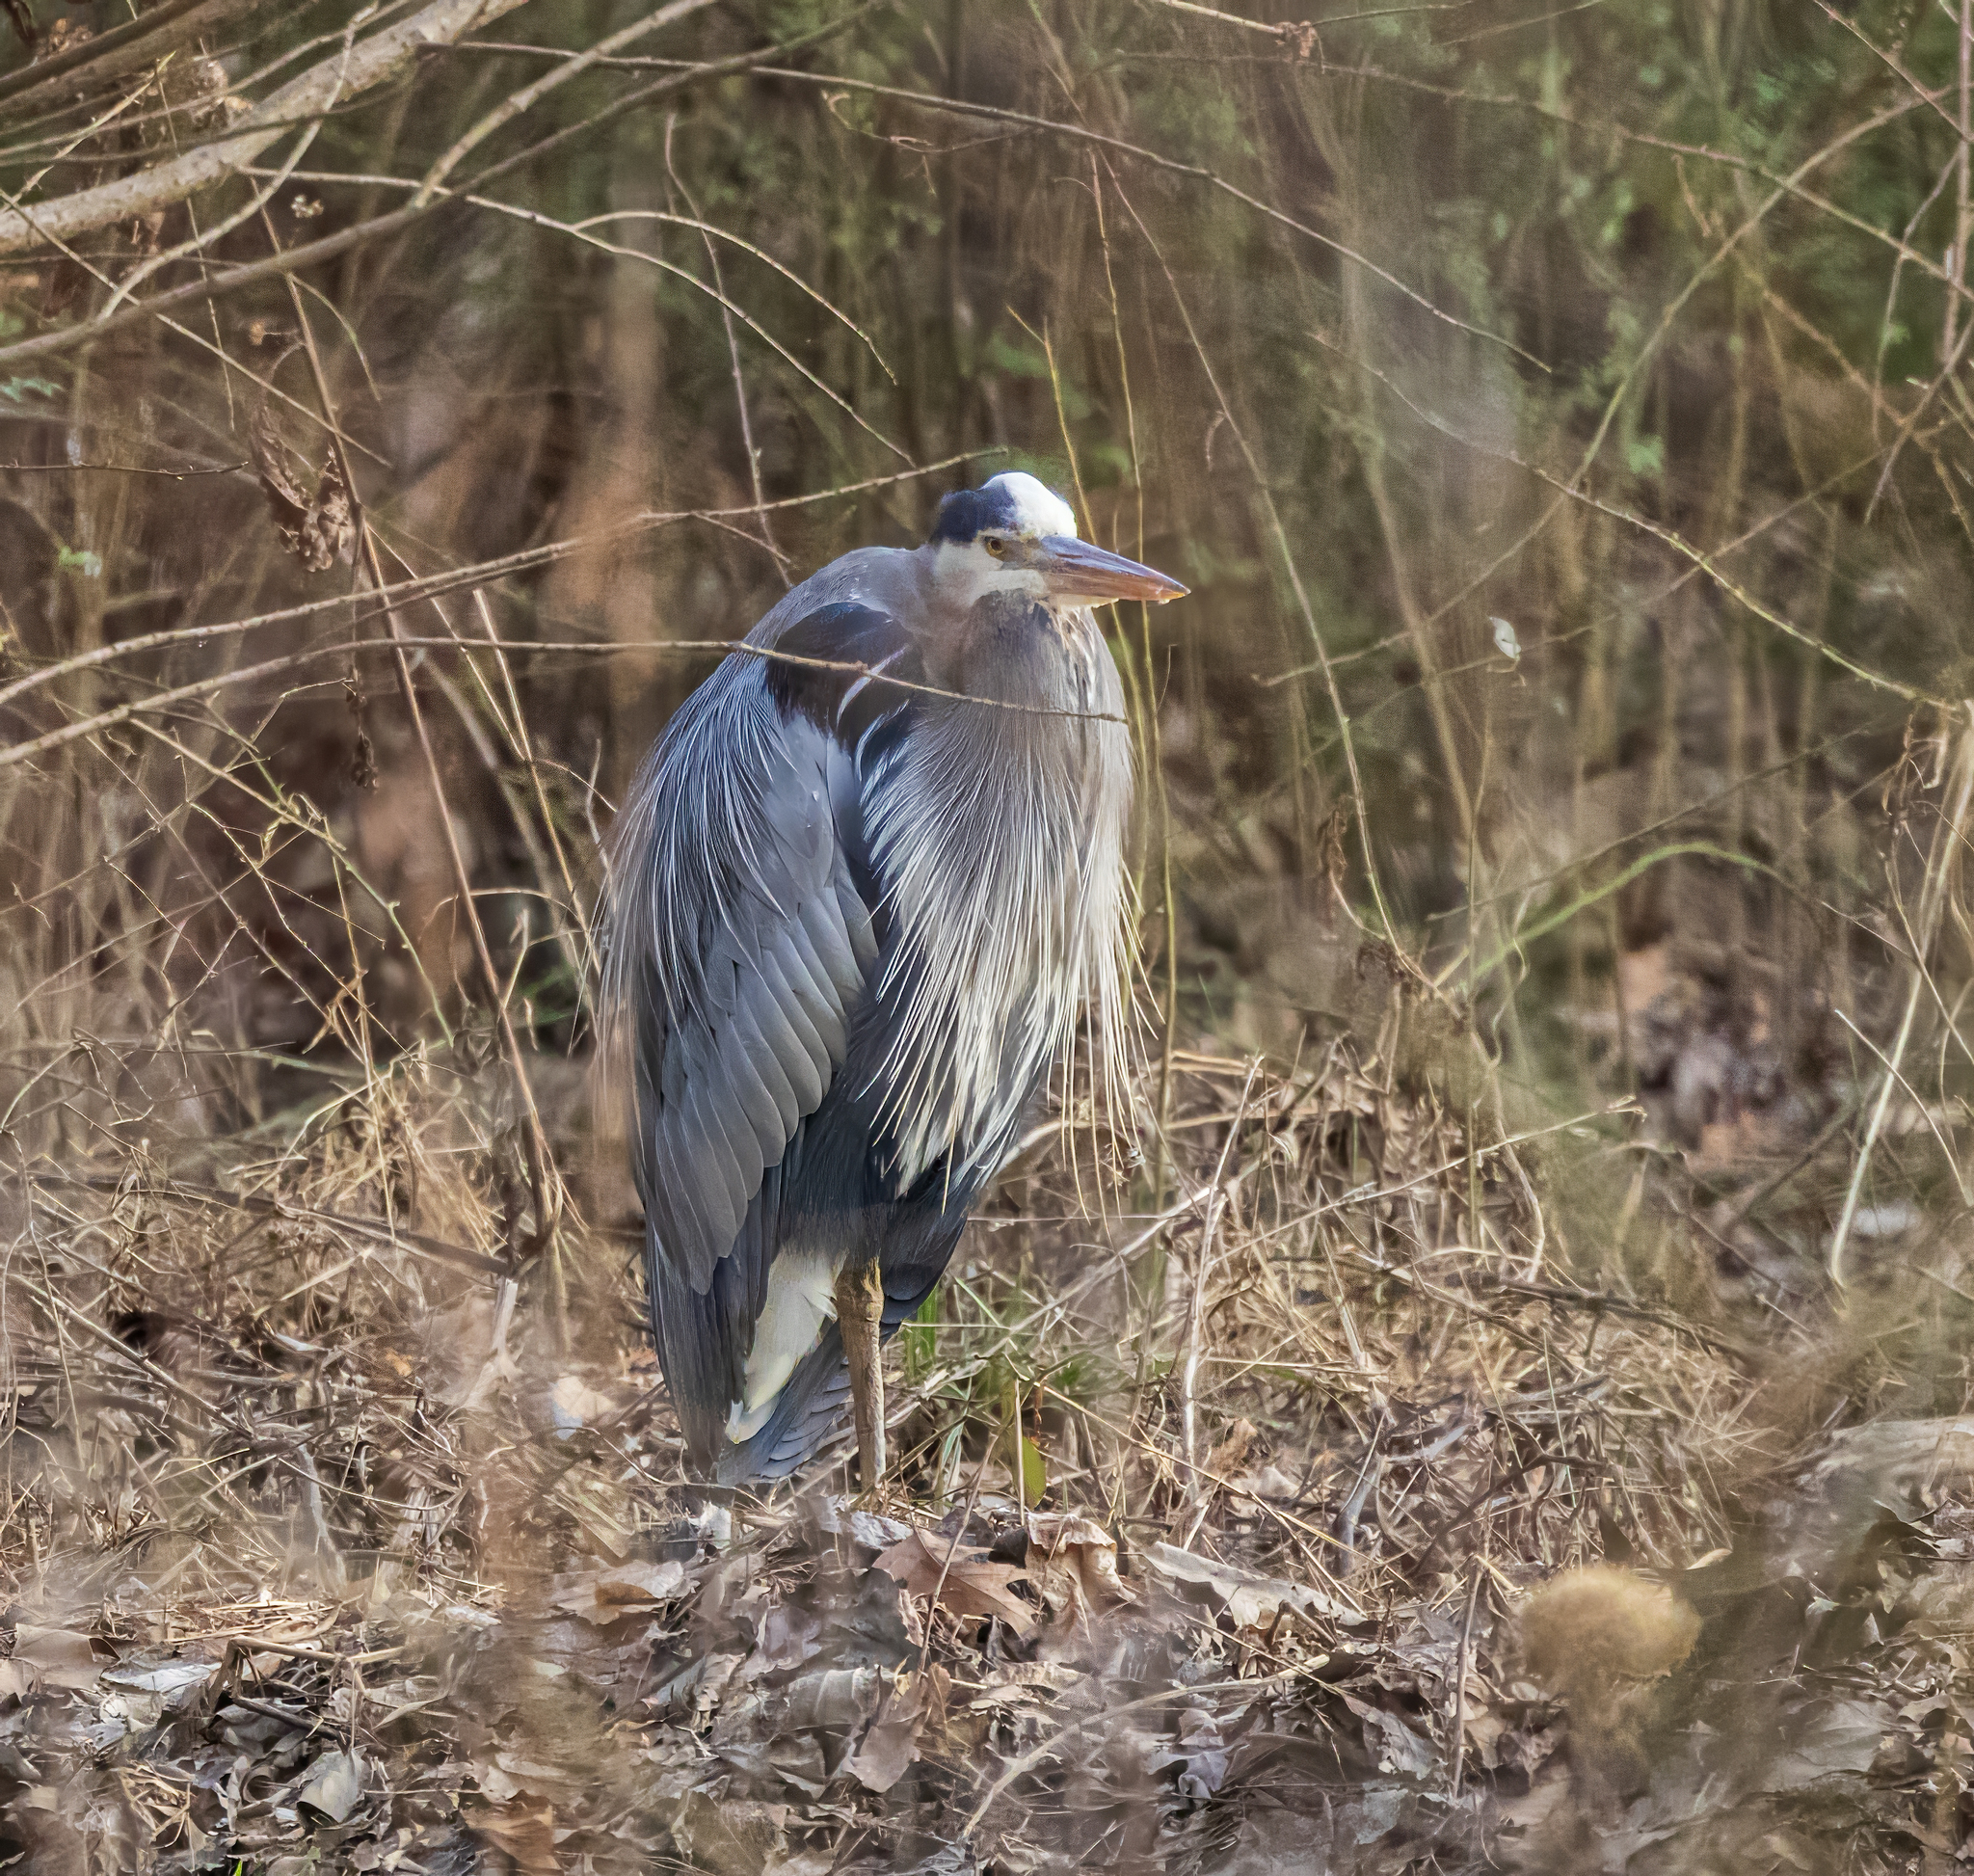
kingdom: Animalia
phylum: Chordata
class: Aves
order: Pelecaniformes
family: Ardeidae
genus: Ardea
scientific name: Ardea herodias
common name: Great blue heron
